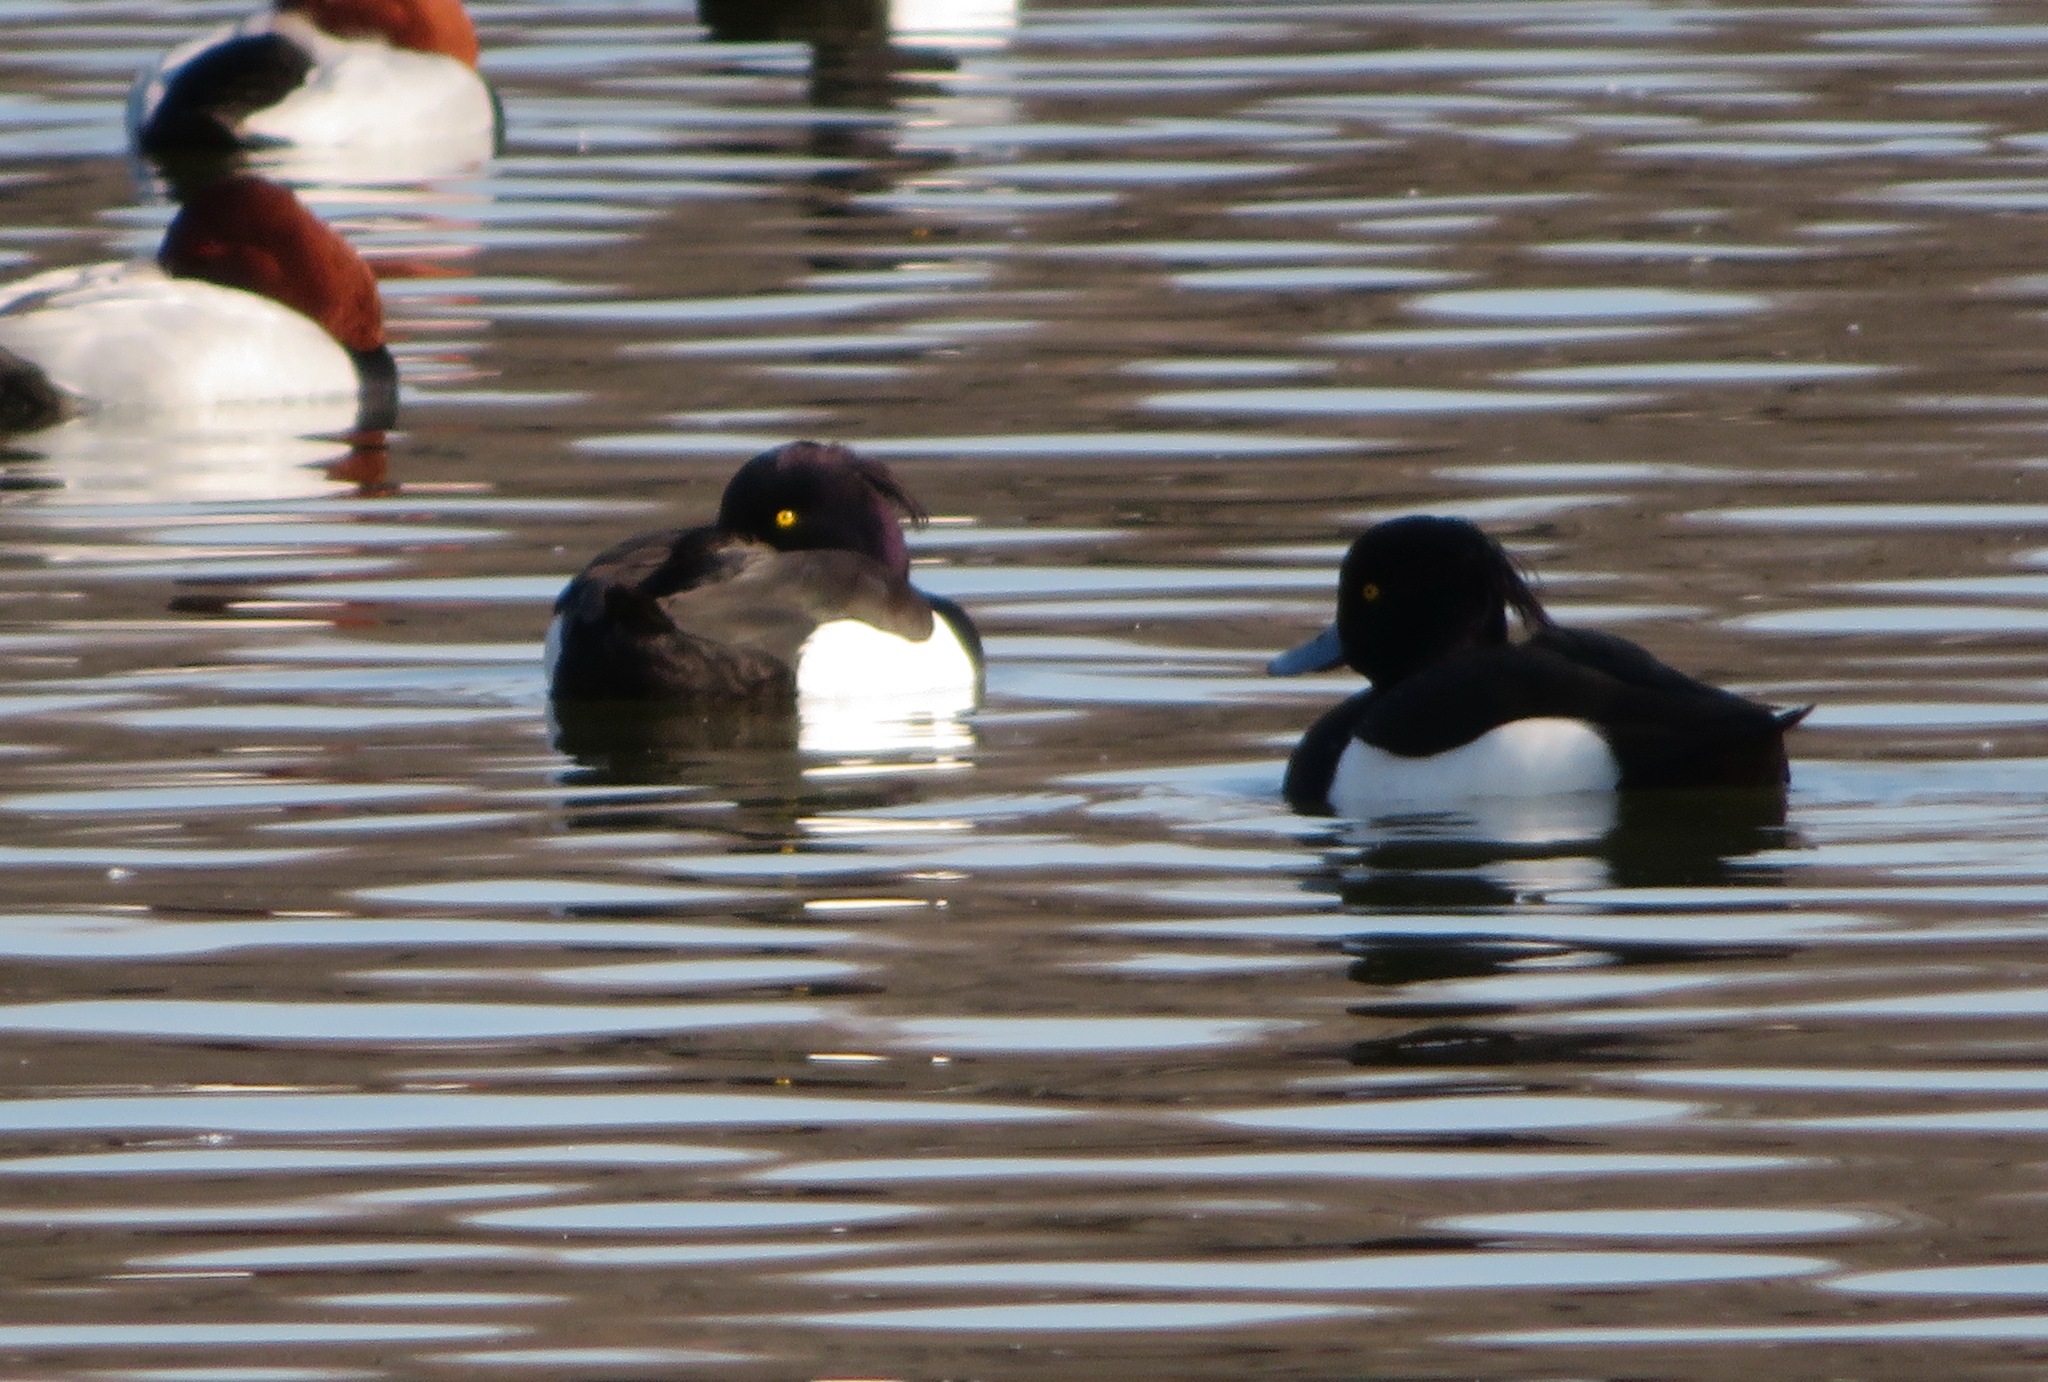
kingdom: Animalia
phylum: Chordata
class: Aves
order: Anseriformes
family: Anatidae
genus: Aythya
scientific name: Aythya fuligula
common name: Tufted duck
